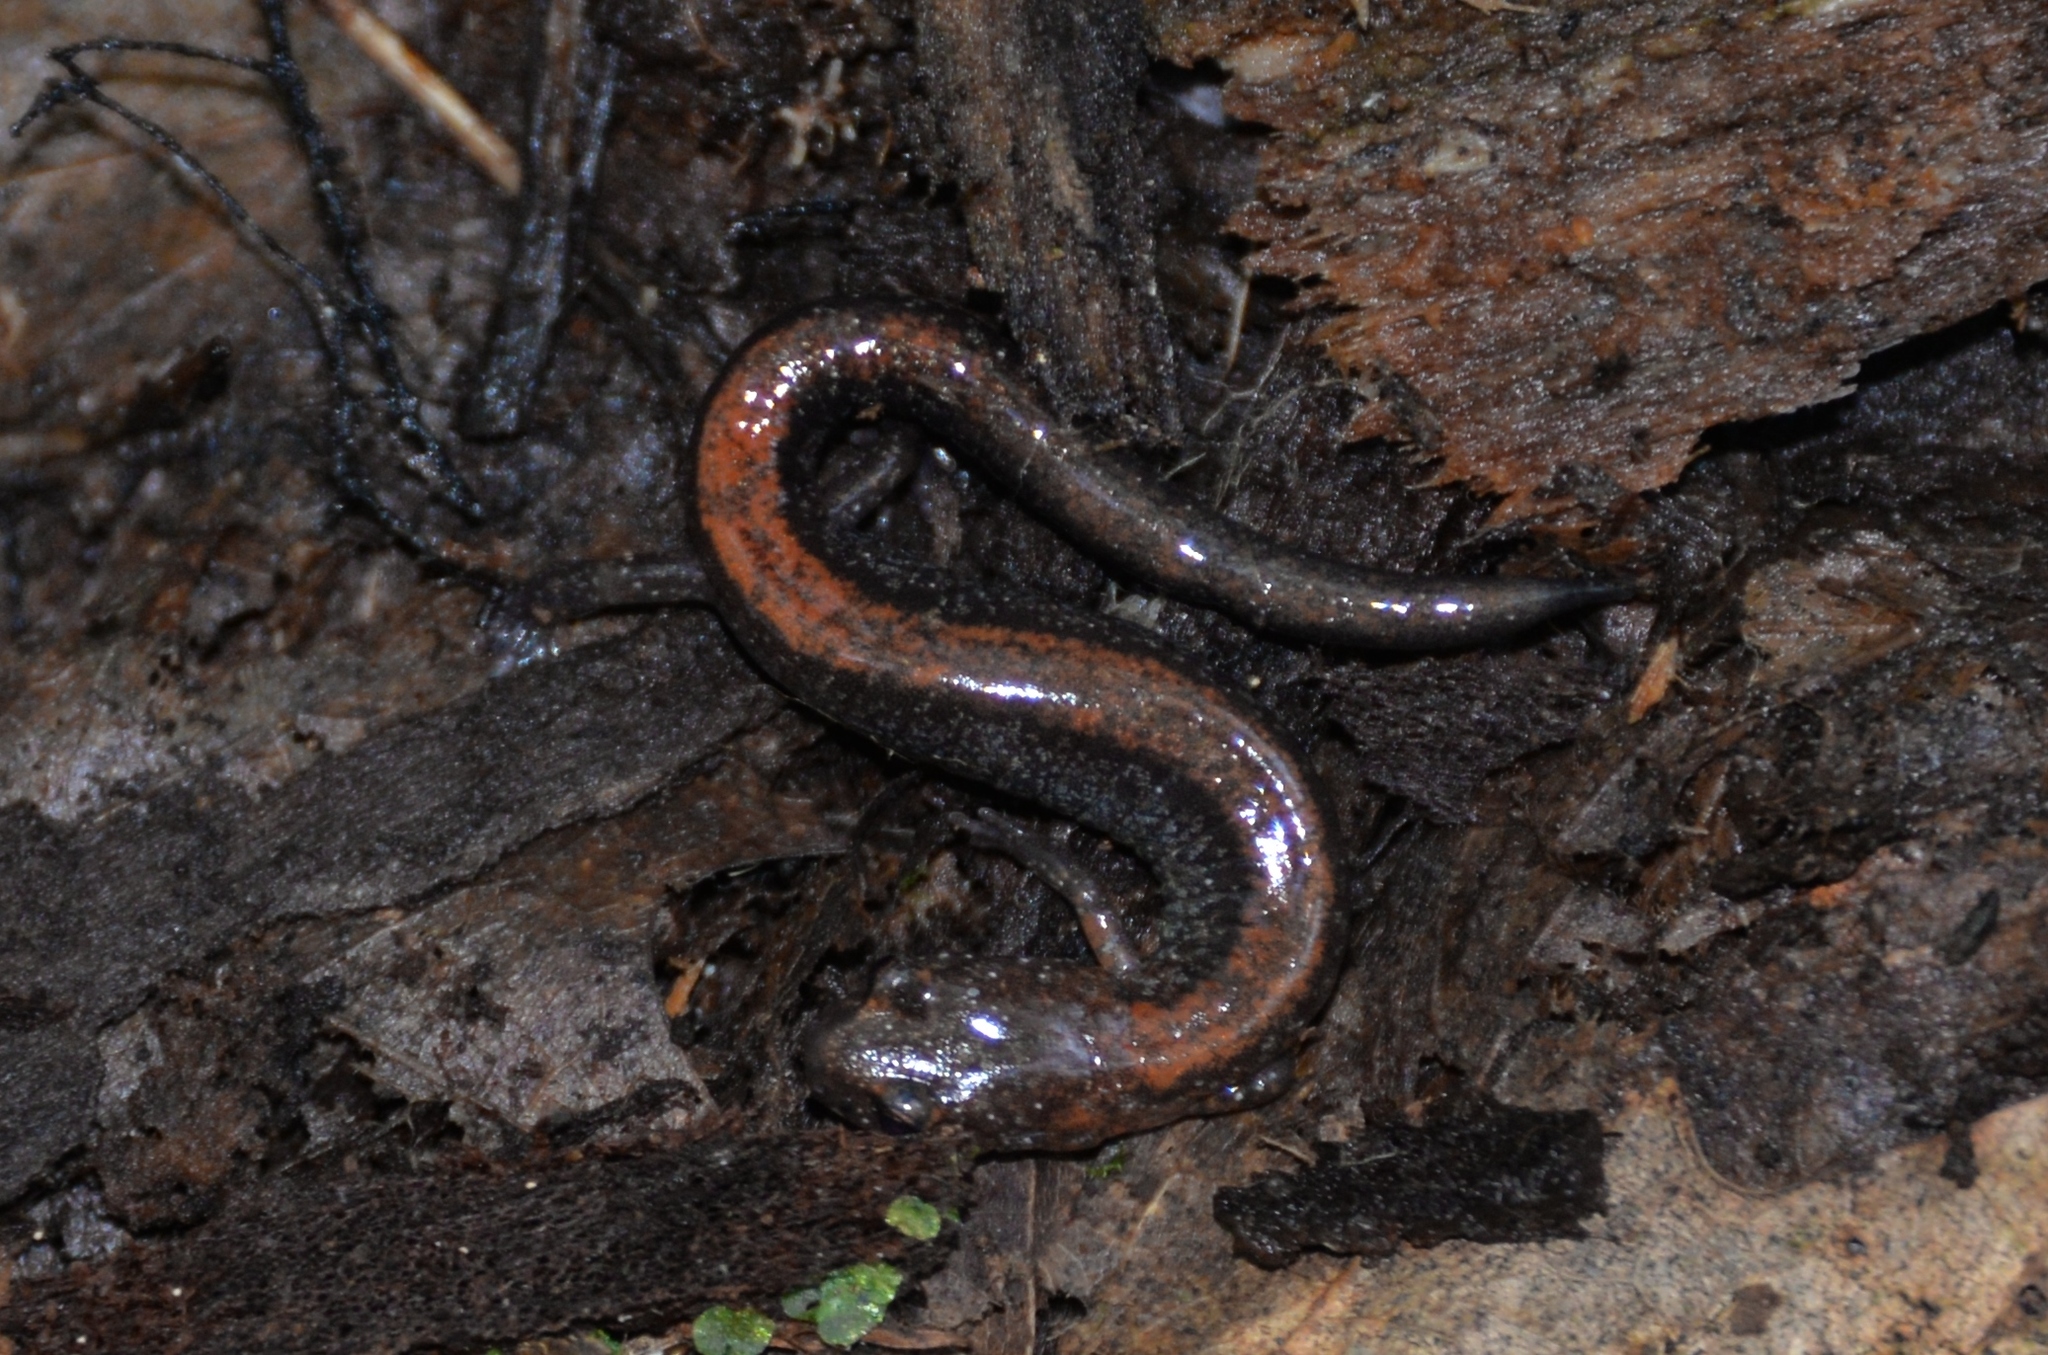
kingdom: Animalia
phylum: Chordata
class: Amphibia
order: Caudata
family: Plethodontidae
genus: Plethodon
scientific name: Plethodon cinereus
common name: Redback salamander
